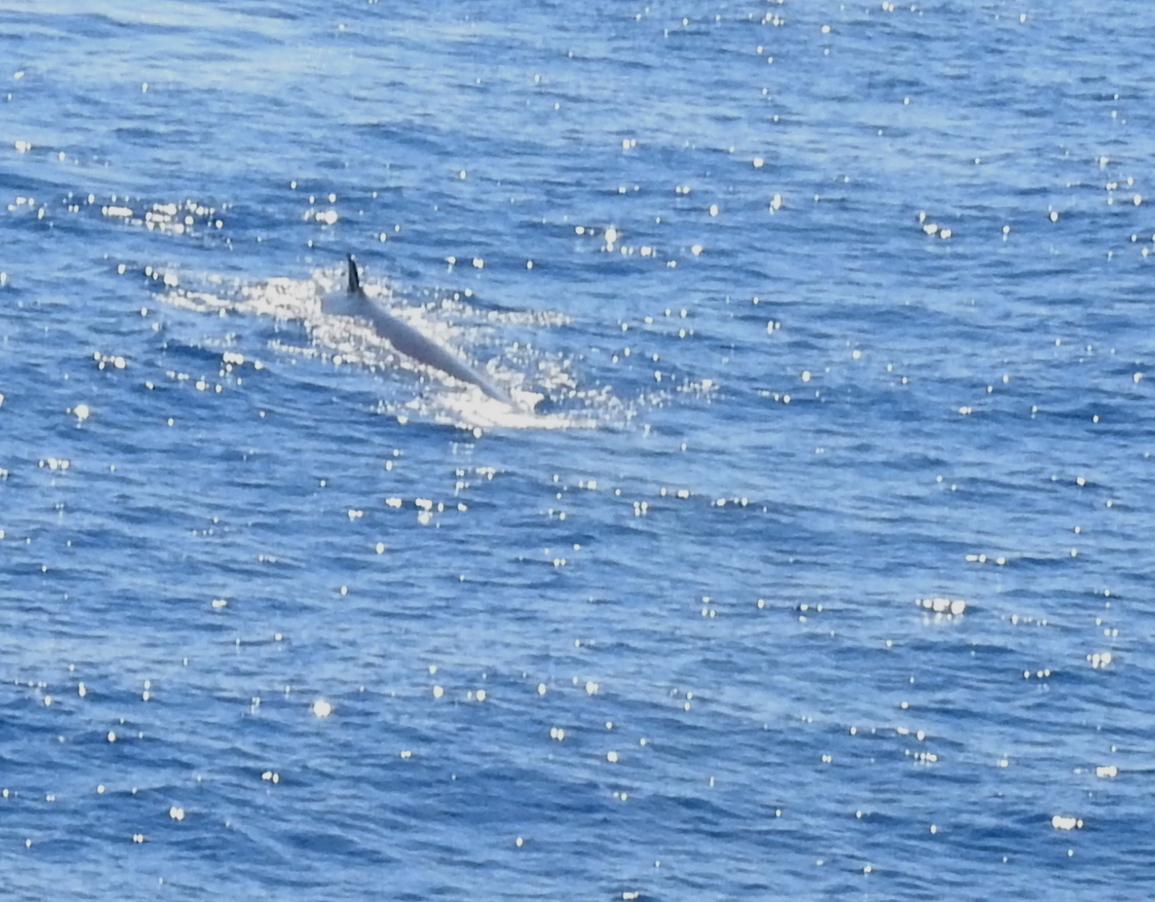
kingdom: Animalia
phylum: Chordata
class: Mammalia
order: Cetacea
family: Balaenopteridae
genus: Balaenoptera
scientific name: Balaenoptera physalus
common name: Fin whale
